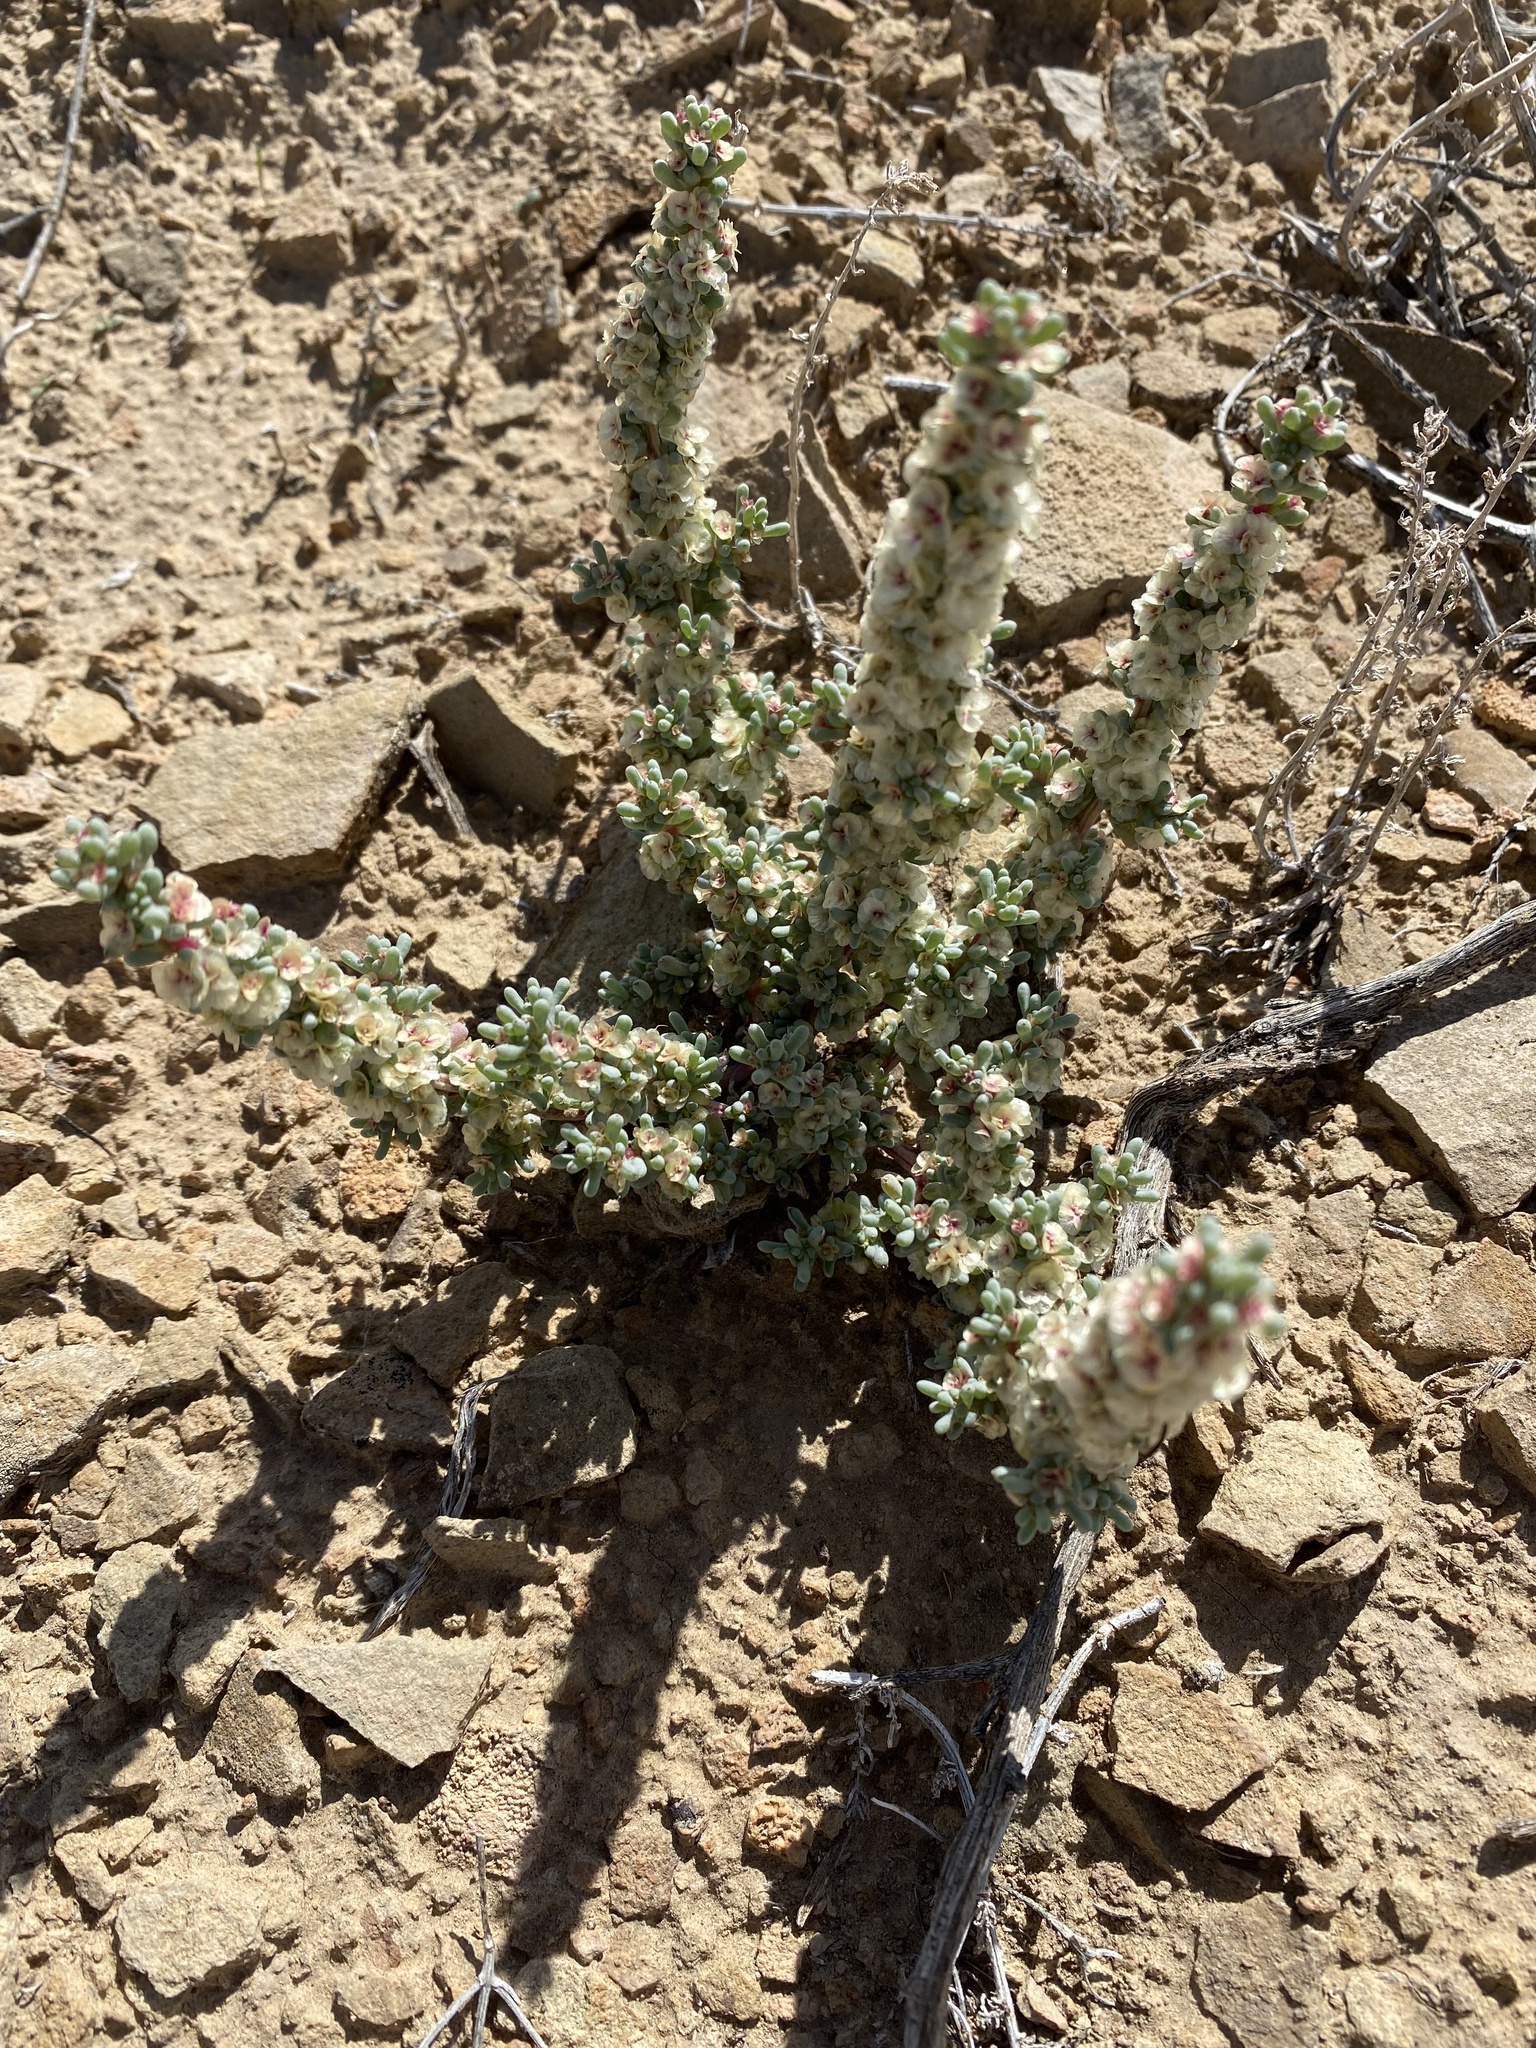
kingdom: Plantae
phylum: Tracheophyta
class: Magnoliopsida
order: Caryophyllales
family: Amaranthaceae
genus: Halogeton
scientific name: Halogeton glomeratus
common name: Saltlover
